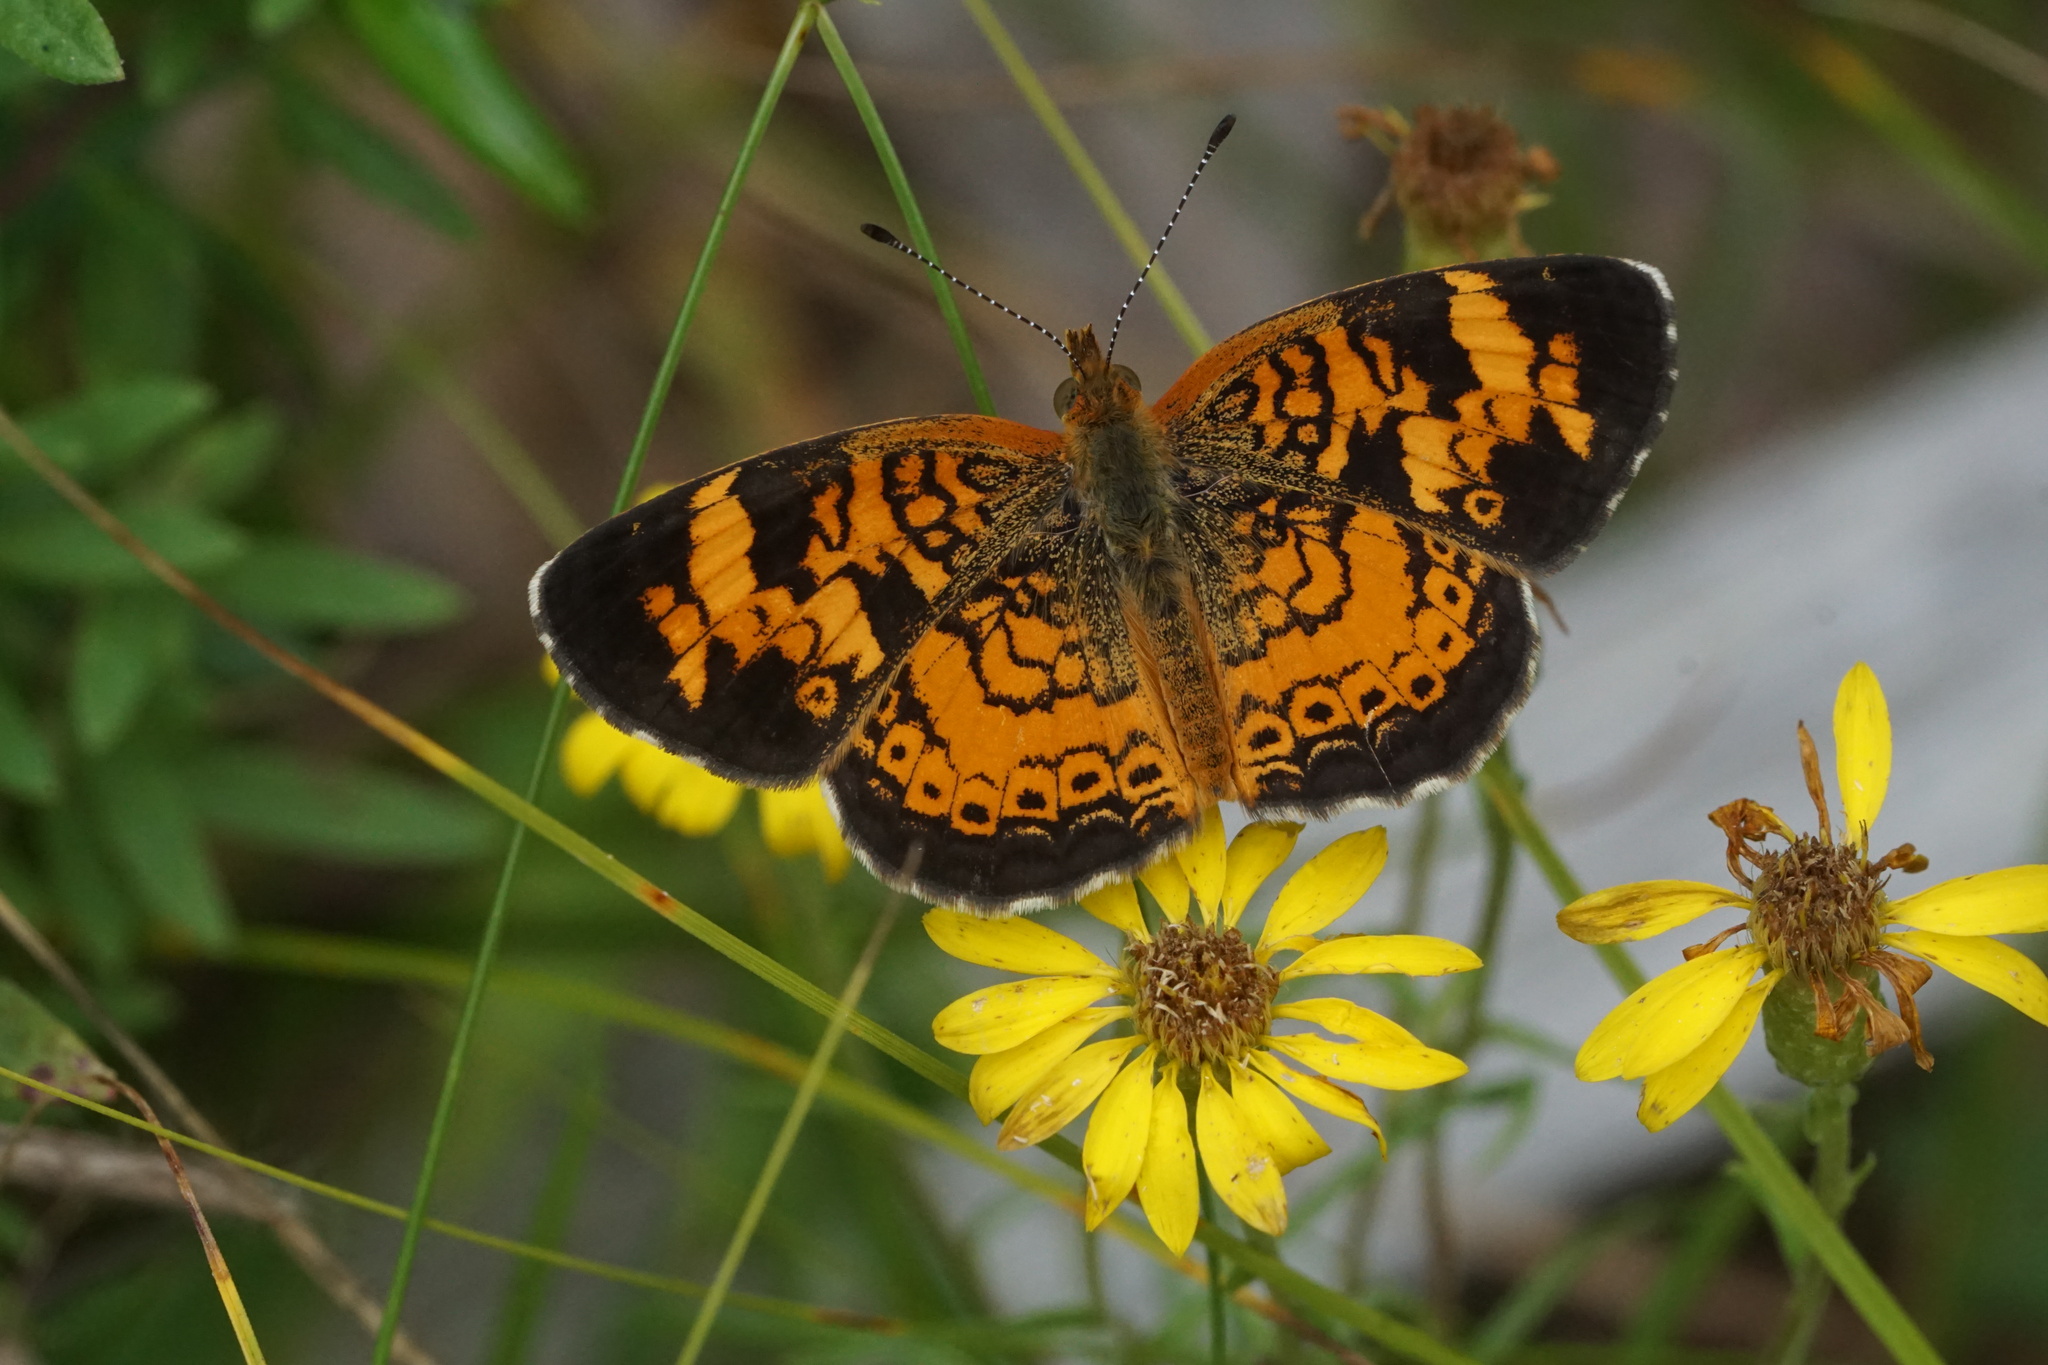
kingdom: Animalia
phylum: Arthropoda
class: Insecta
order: Lepidoptera
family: Nymphalidae
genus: Phyciodes
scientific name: Phyciodes tharos
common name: Pearl crescent
